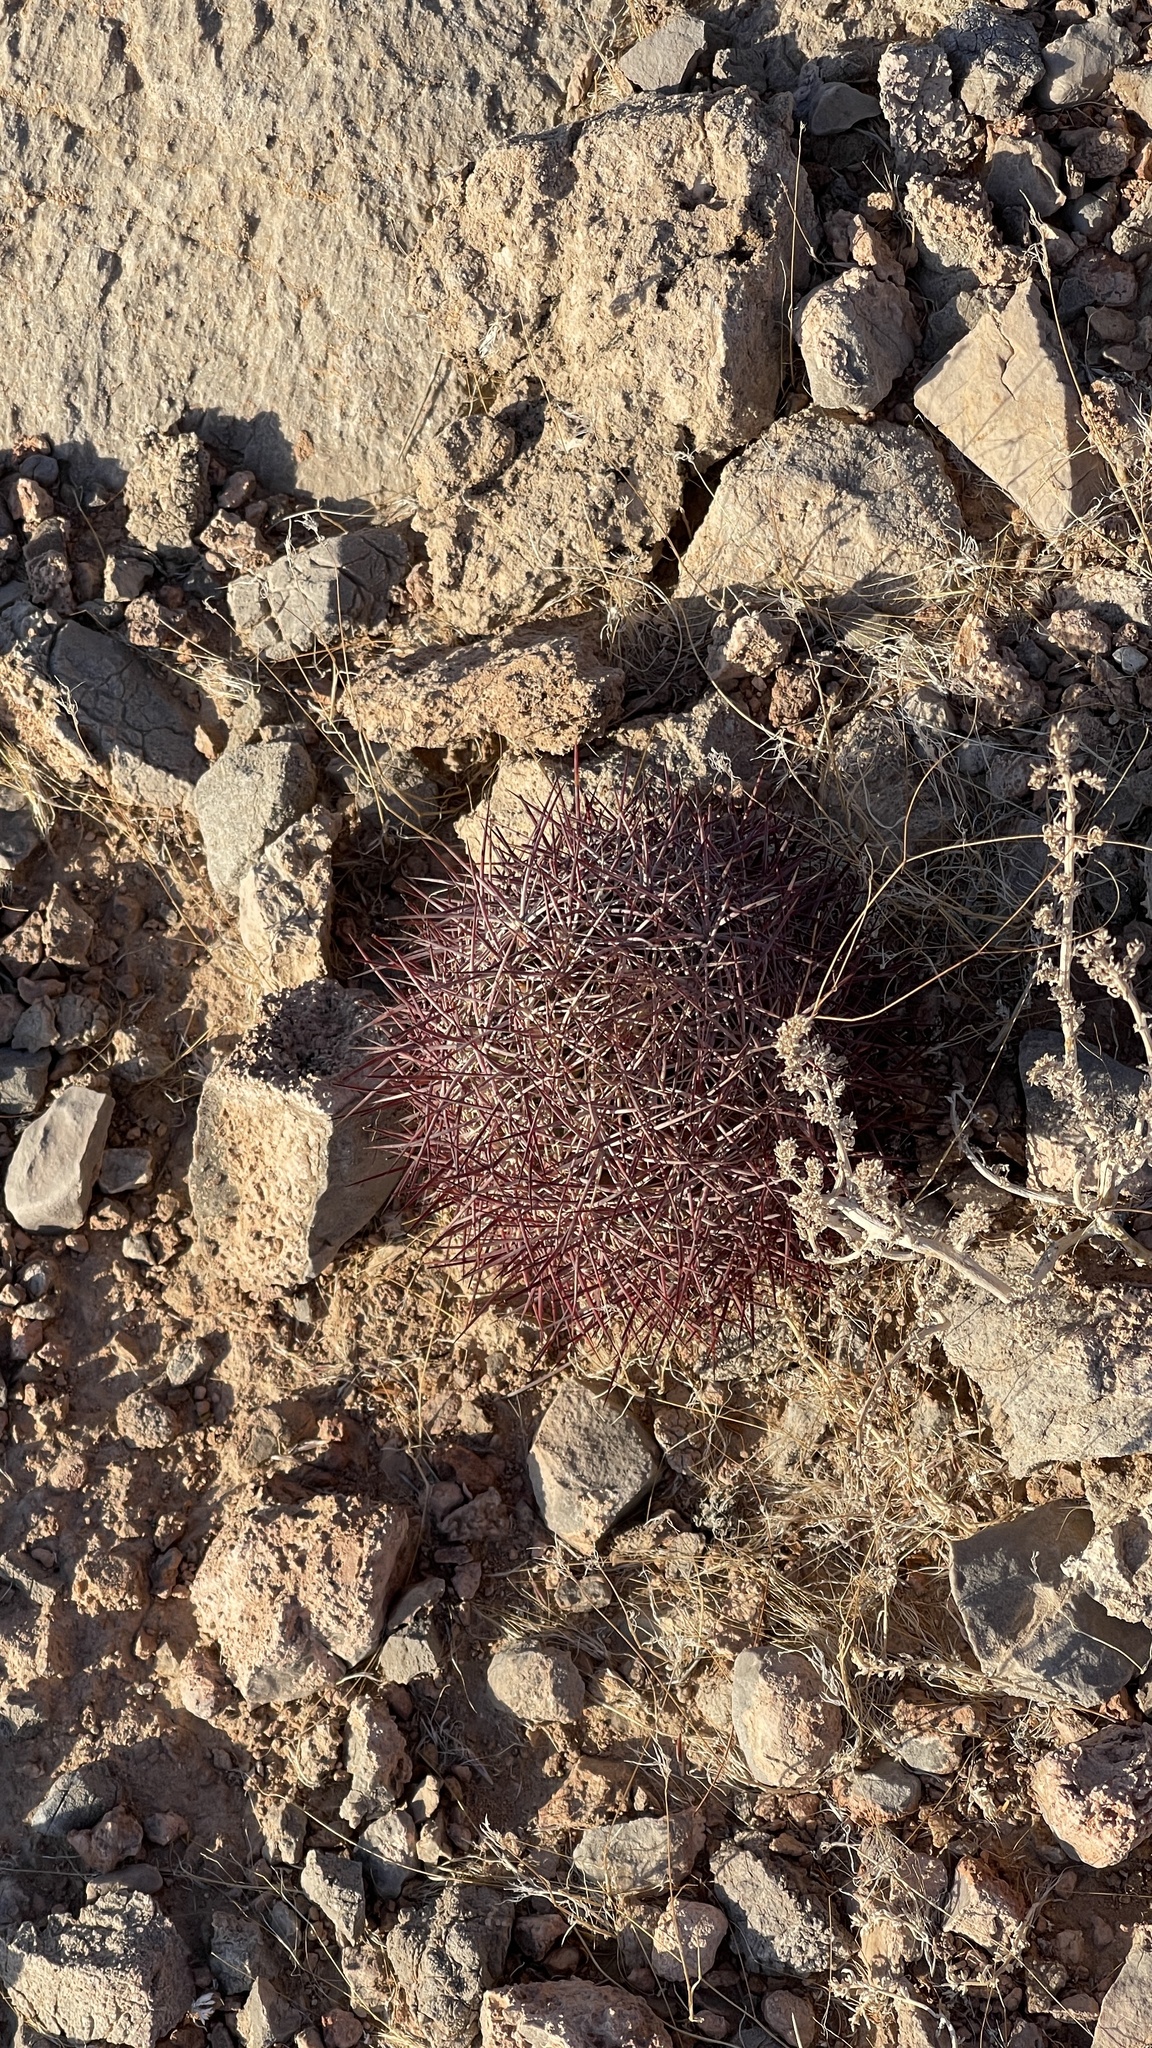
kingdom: Plantae
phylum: Tracheophyta
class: Magnoliopsida
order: Caryophyllales
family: Cactaceae
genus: Sclerocactus
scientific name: Sclerocactus johnsonii
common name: Eight-spine fishhook cactus
